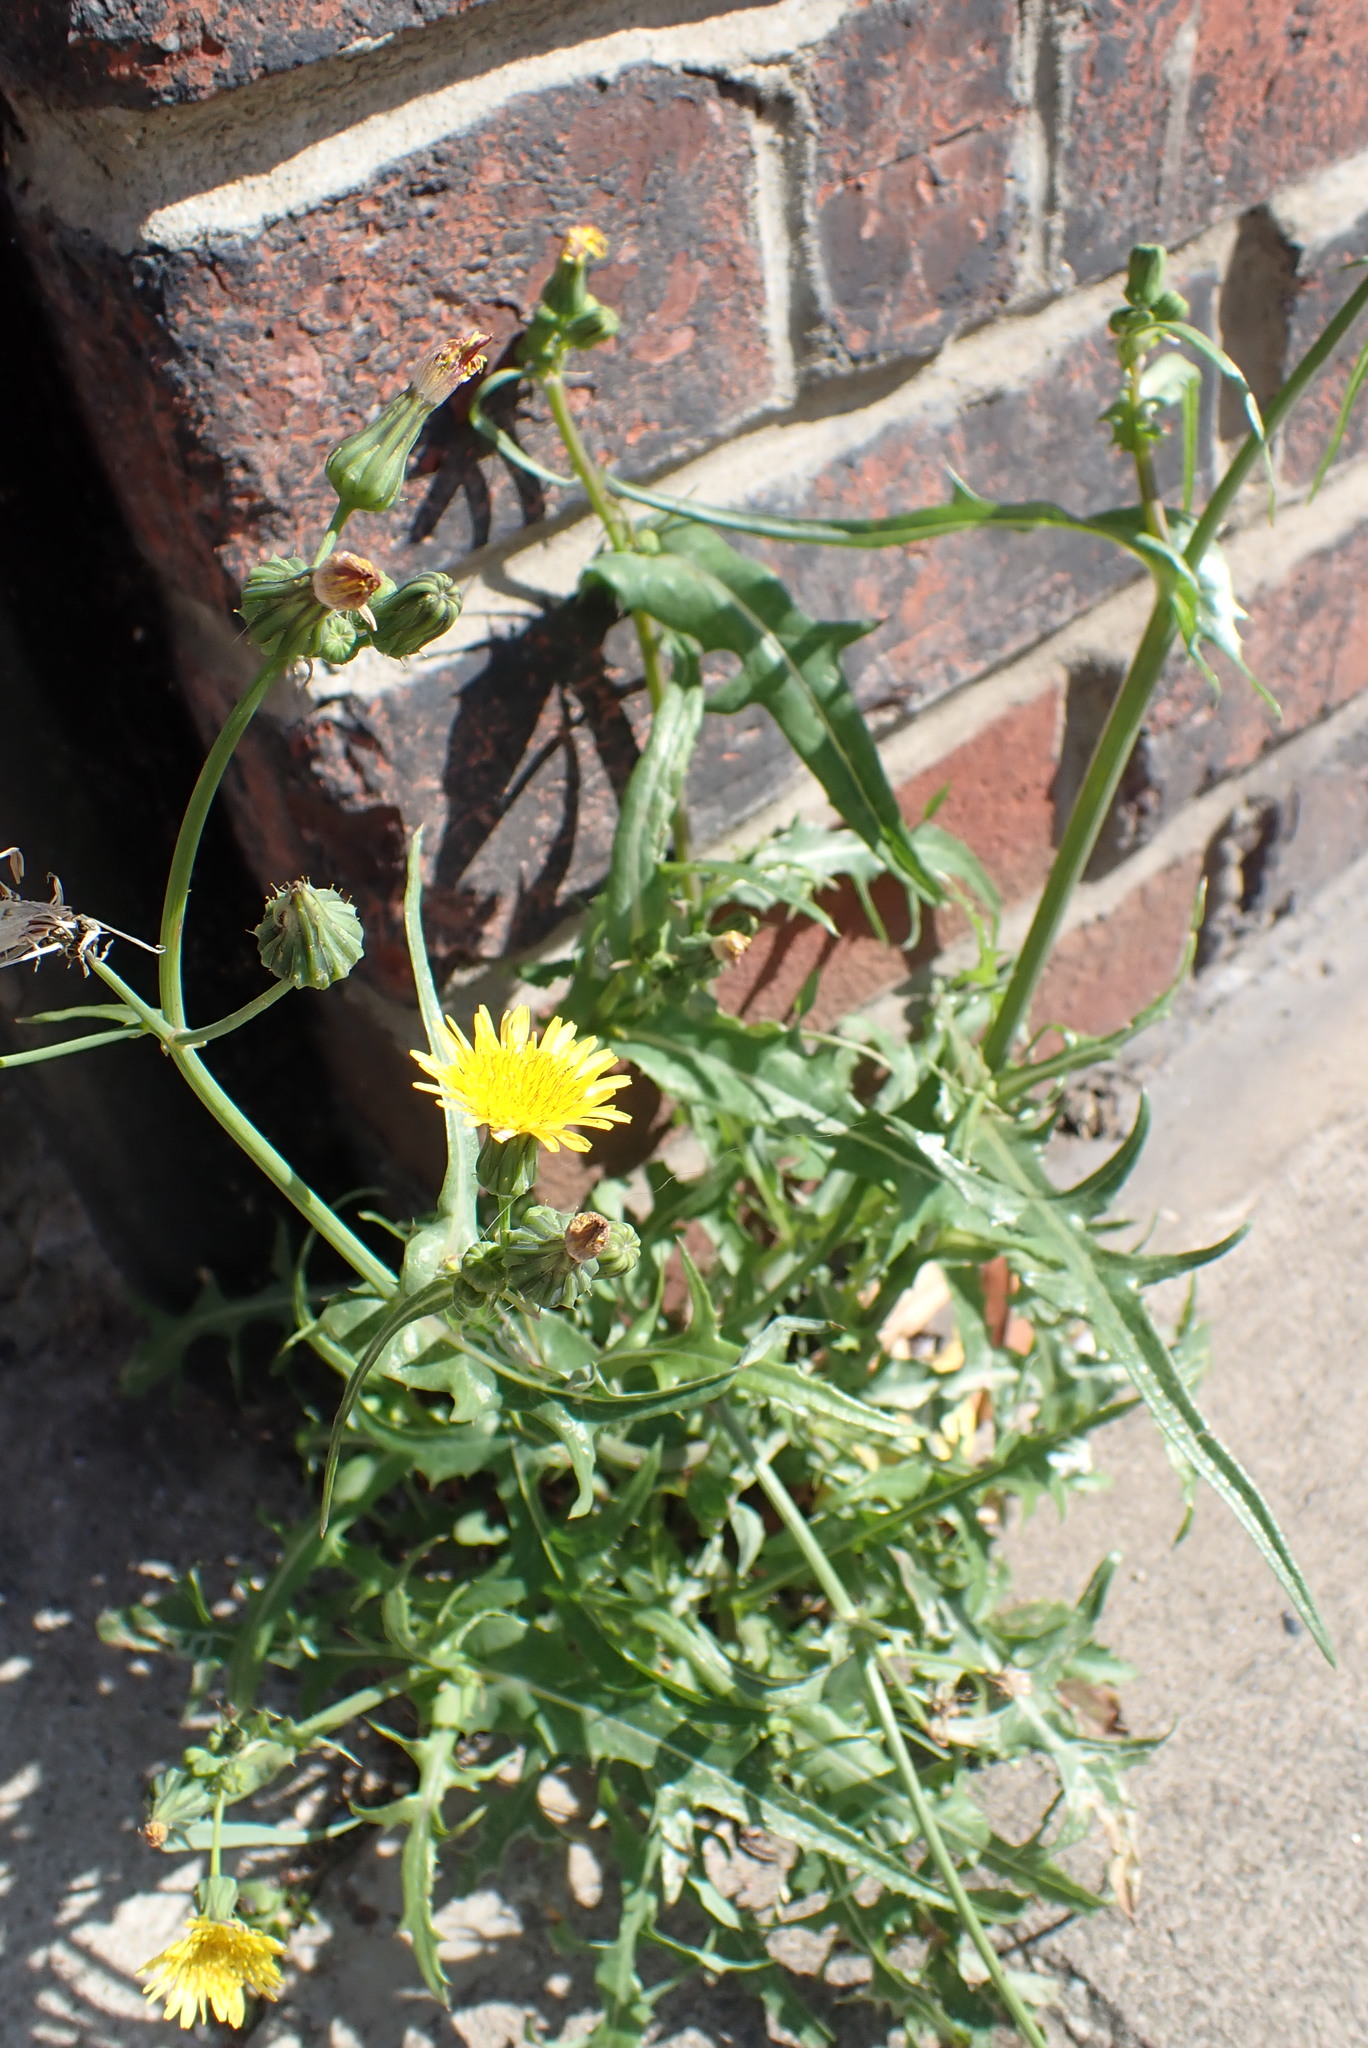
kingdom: Plantae
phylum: Tracheophyta
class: Magnoliopsida
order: Asterales
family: Asteraceae
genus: Sonchus
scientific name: Sonchus oleraceus
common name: Common sowthistle
